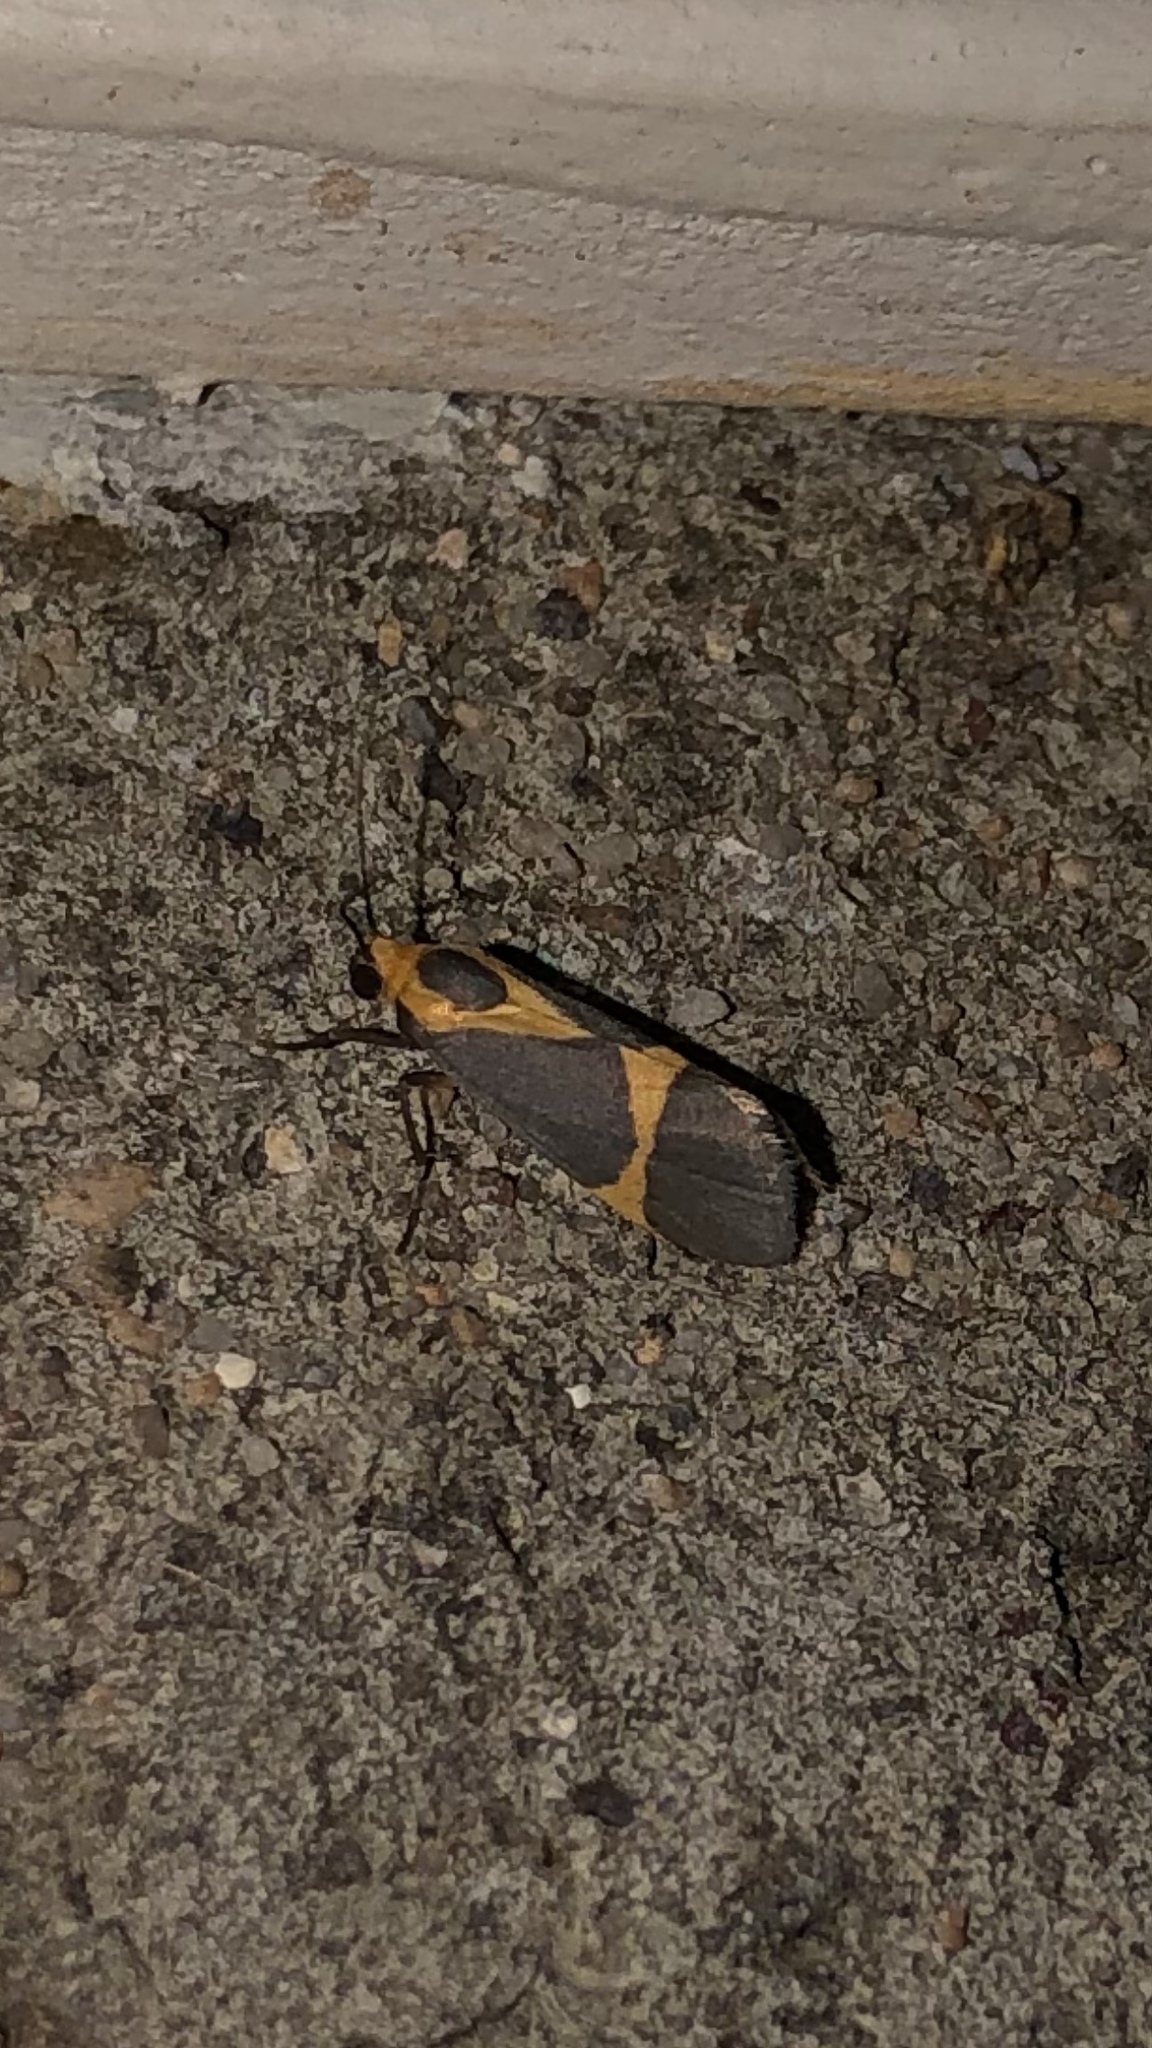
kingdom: Animalia
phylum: Arthropoda
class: Insecta
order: Lepidoptera
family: Erebidae
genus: Cisthene
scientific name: Cisthene tenuifascia
